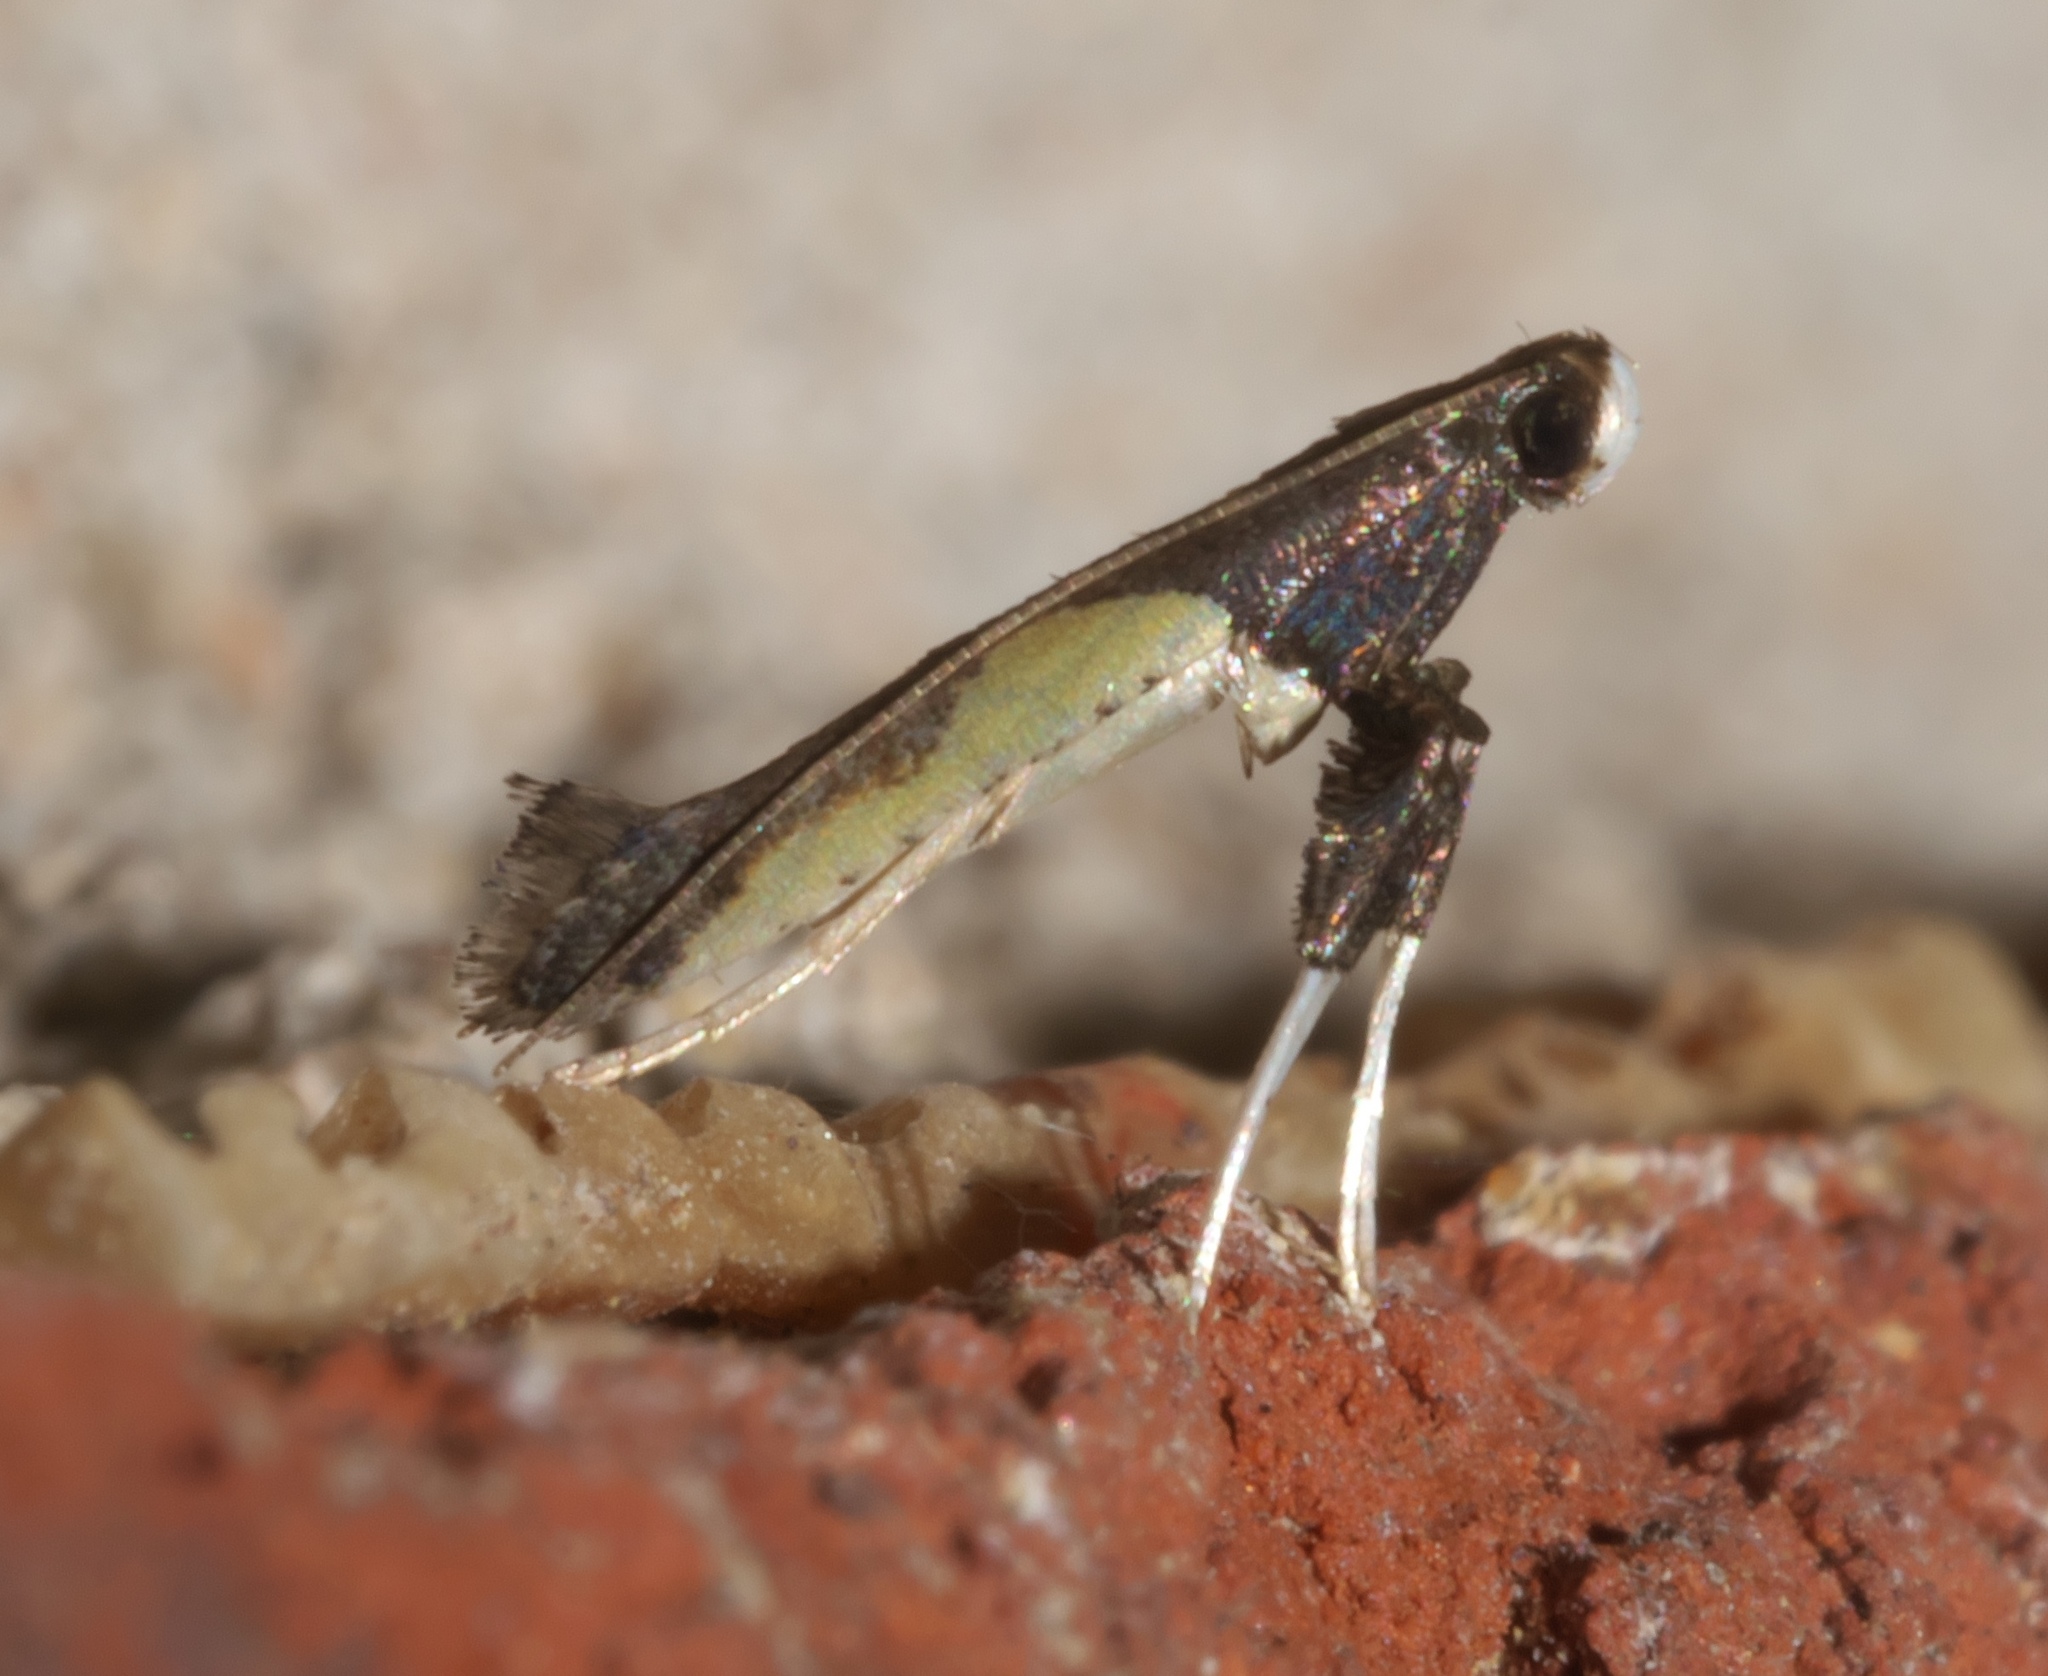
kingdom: Animalia
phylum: Arthropoda
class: Insecta
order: Lepidoptera
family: Gracillariidae
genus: Caloptilia
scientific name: Caloptilia belfragella
